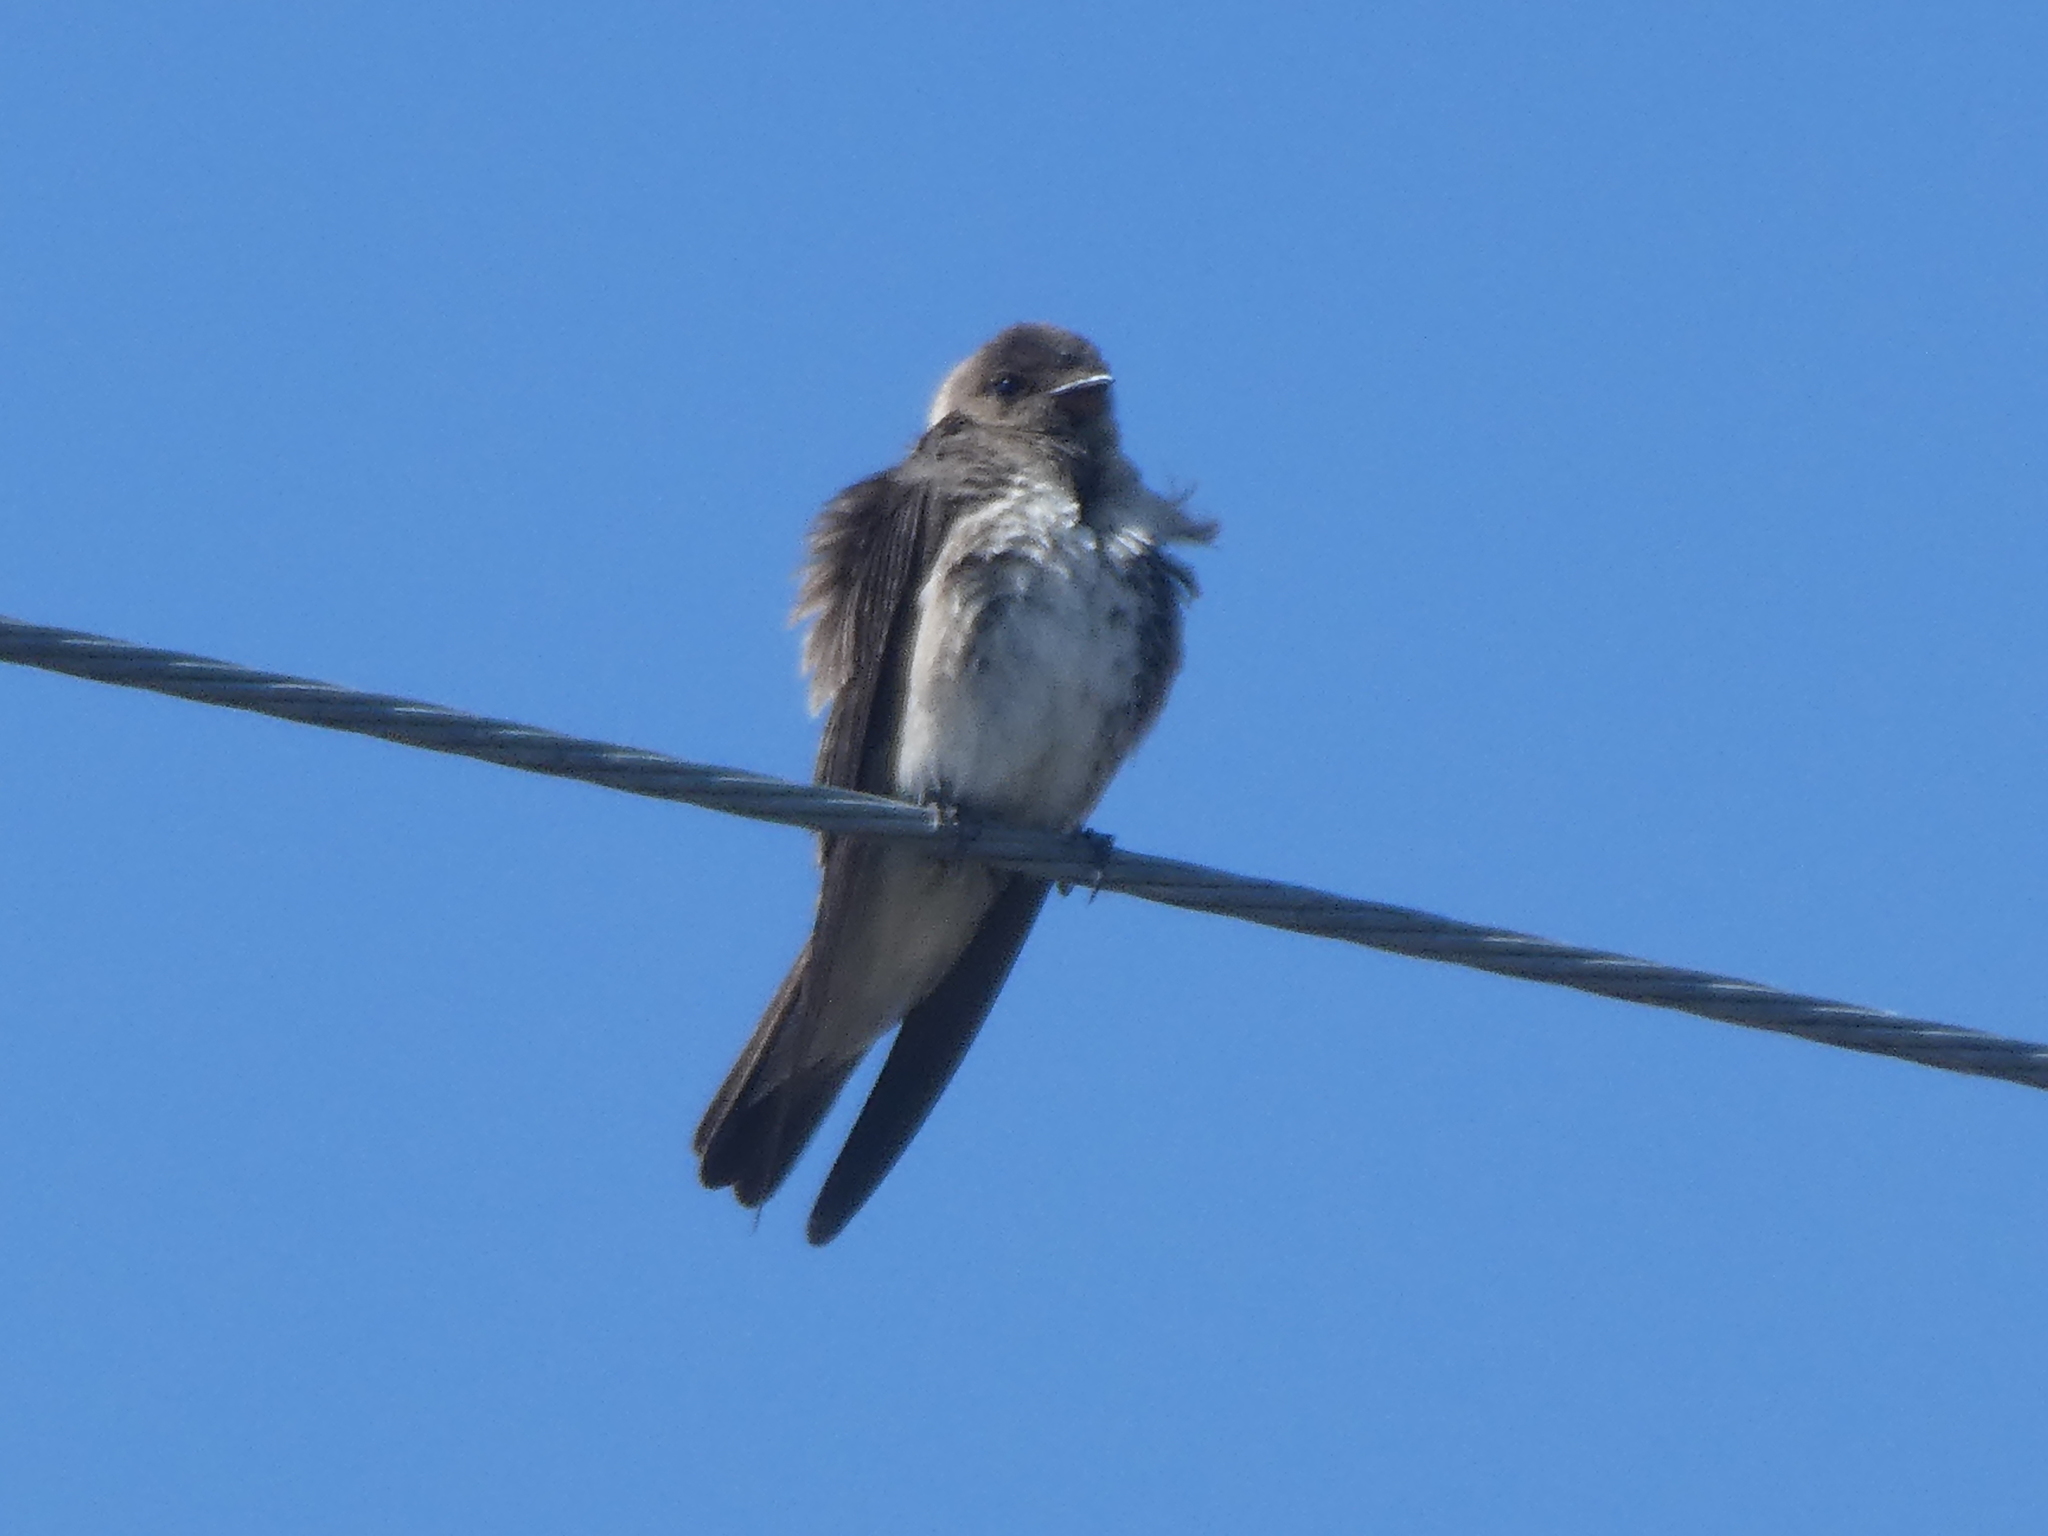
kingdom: Animalia
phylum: Chordata
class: Aves
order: Passeriformes
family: Hirundinidae
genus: Stelgidopteryx
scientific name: Stelgidopteryx serripennis
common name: Northern rough-winged swallow
